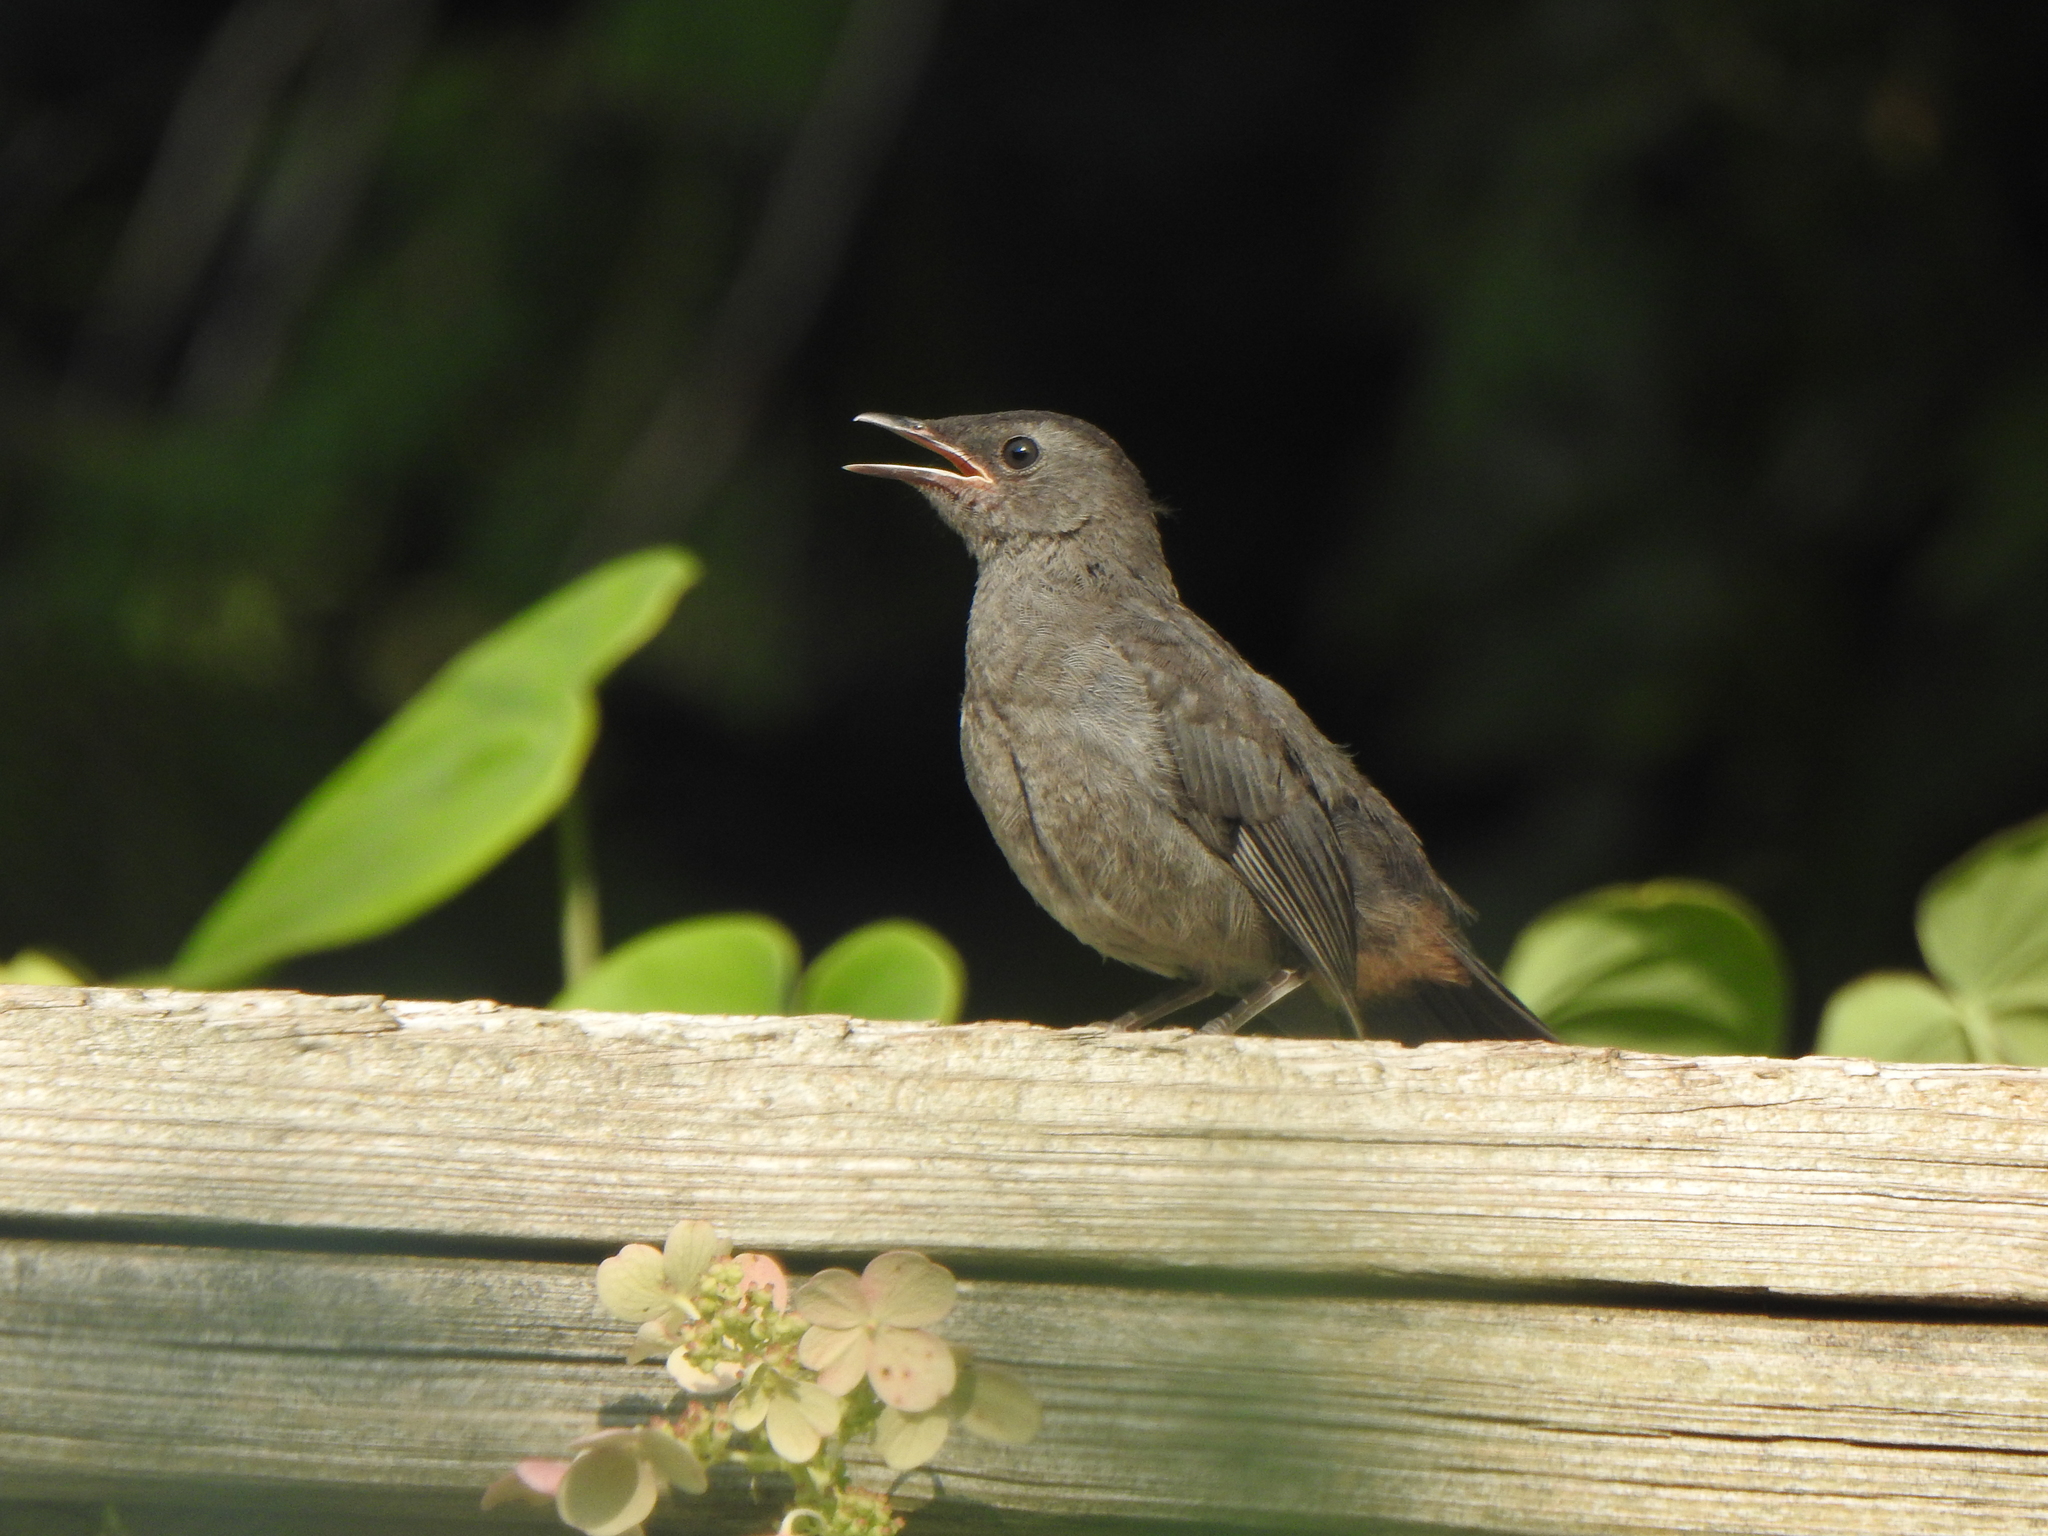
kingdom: Animalia
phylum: Chordata
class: Aves
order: Passeriformes
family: Mimidae
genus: Dumetella
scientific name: Dumetella carolinensis
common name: Gray catbird
